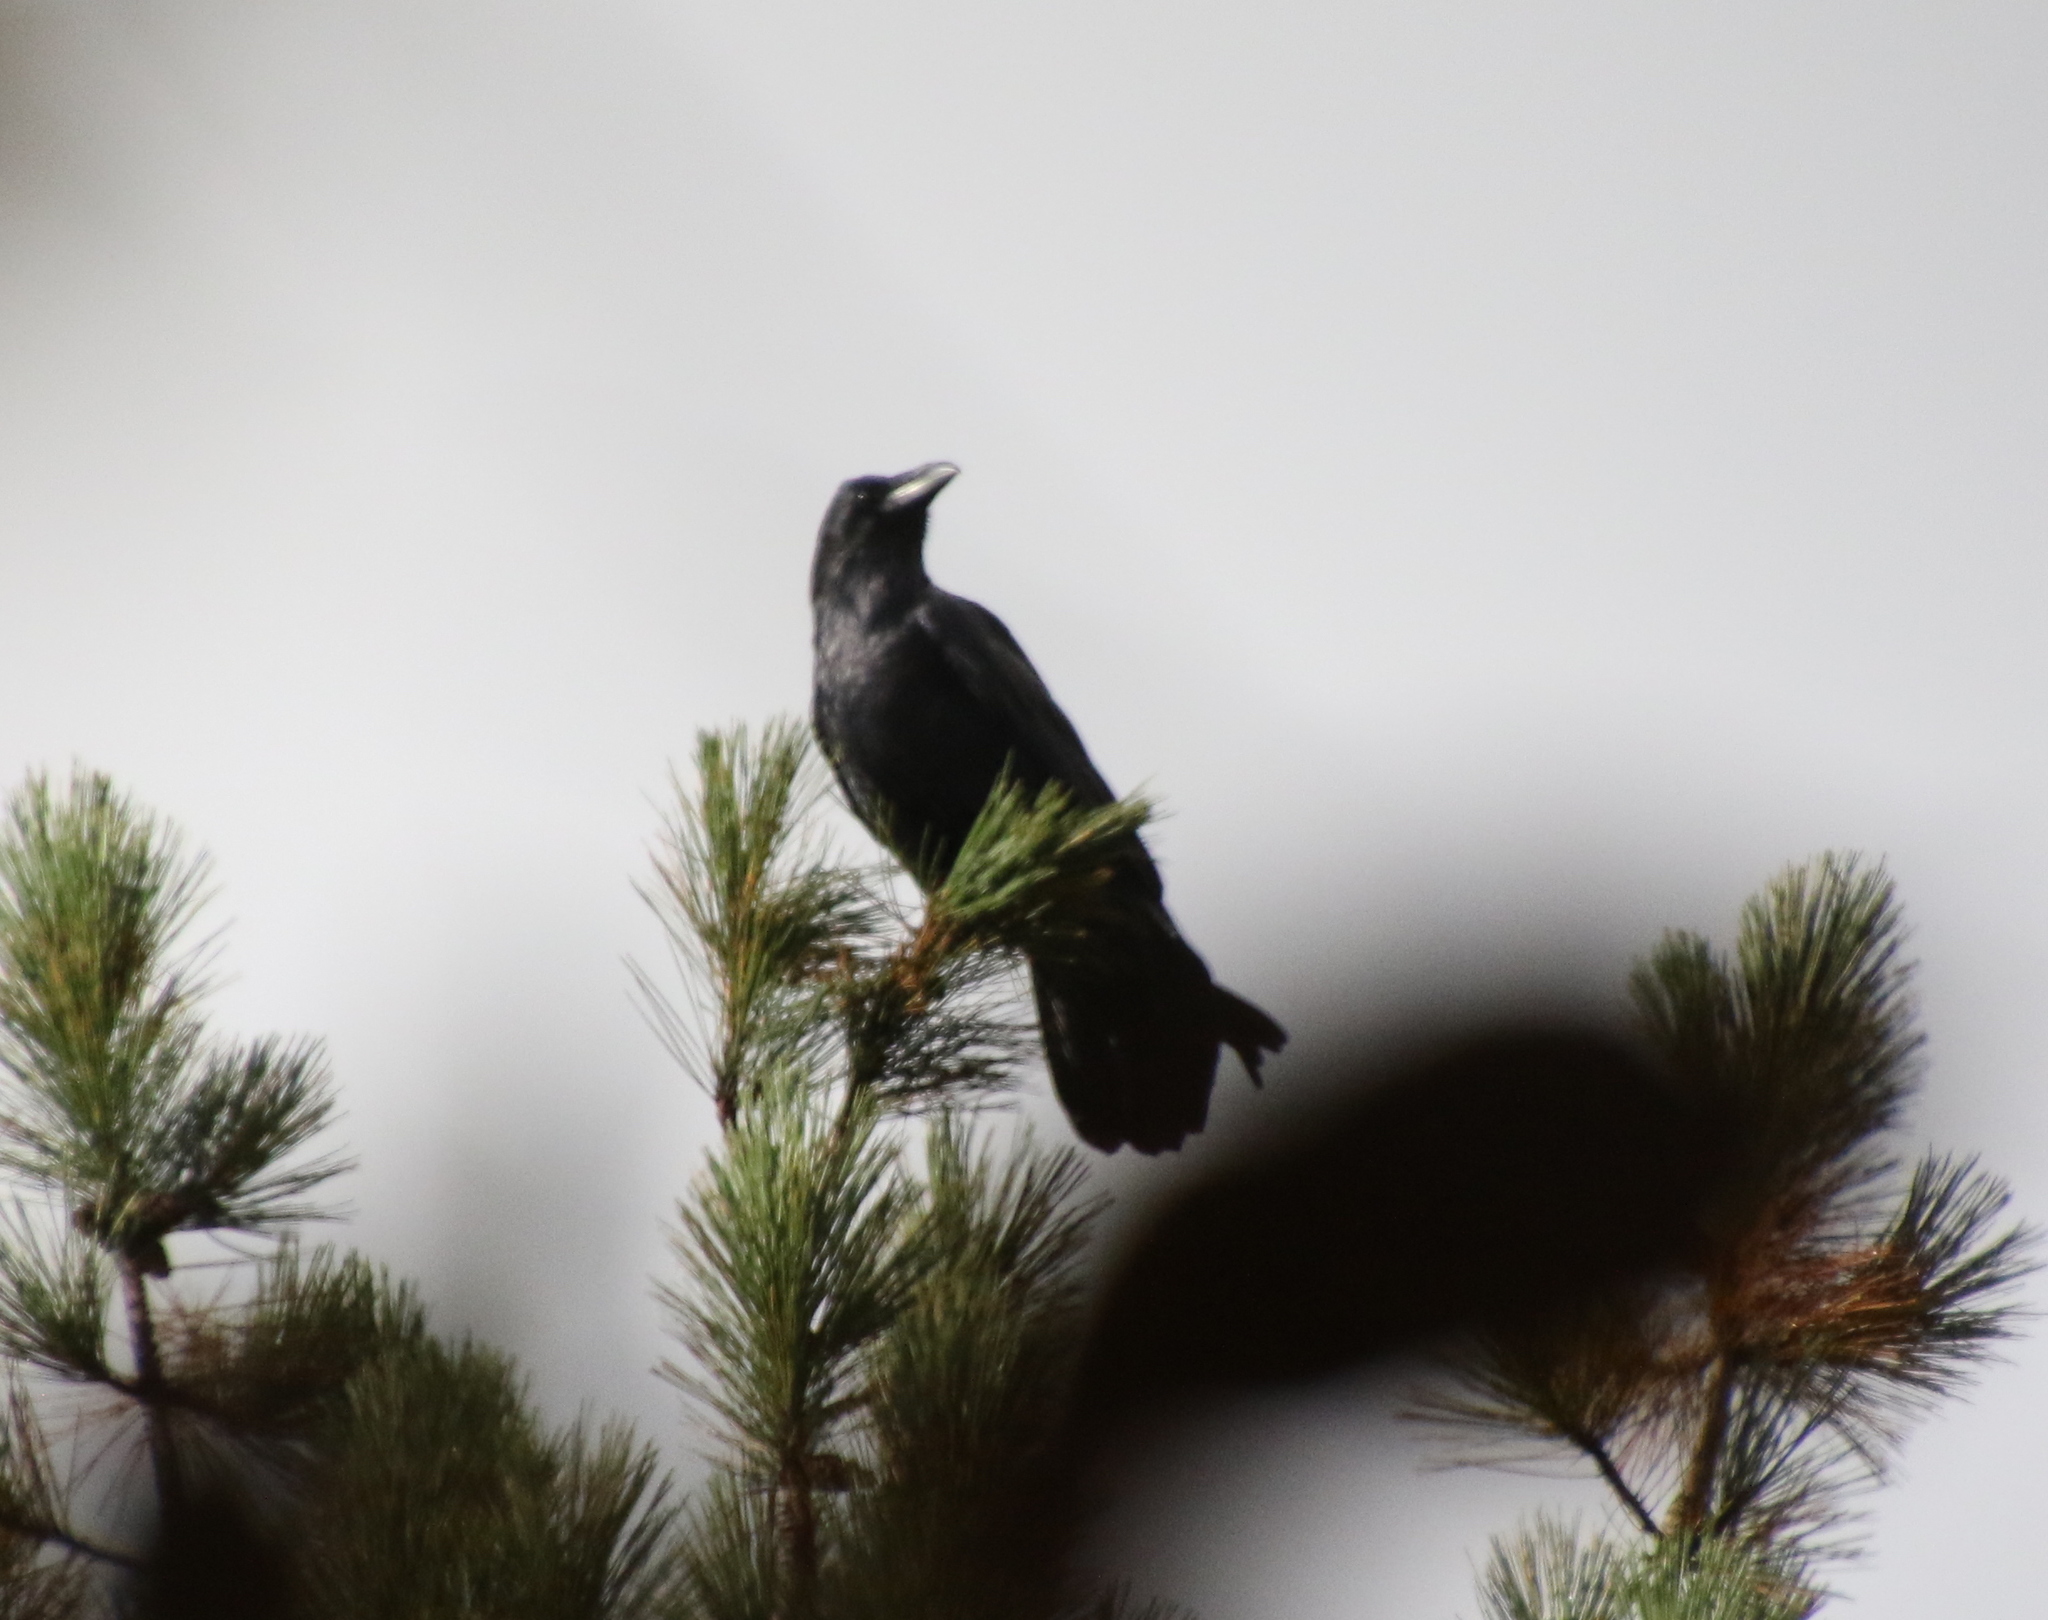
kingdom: Animalia
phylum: Chordata
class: Aves
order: Passeriformes
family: Corvidae
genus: Corvus
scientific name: Corvus corax
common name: Common raven
